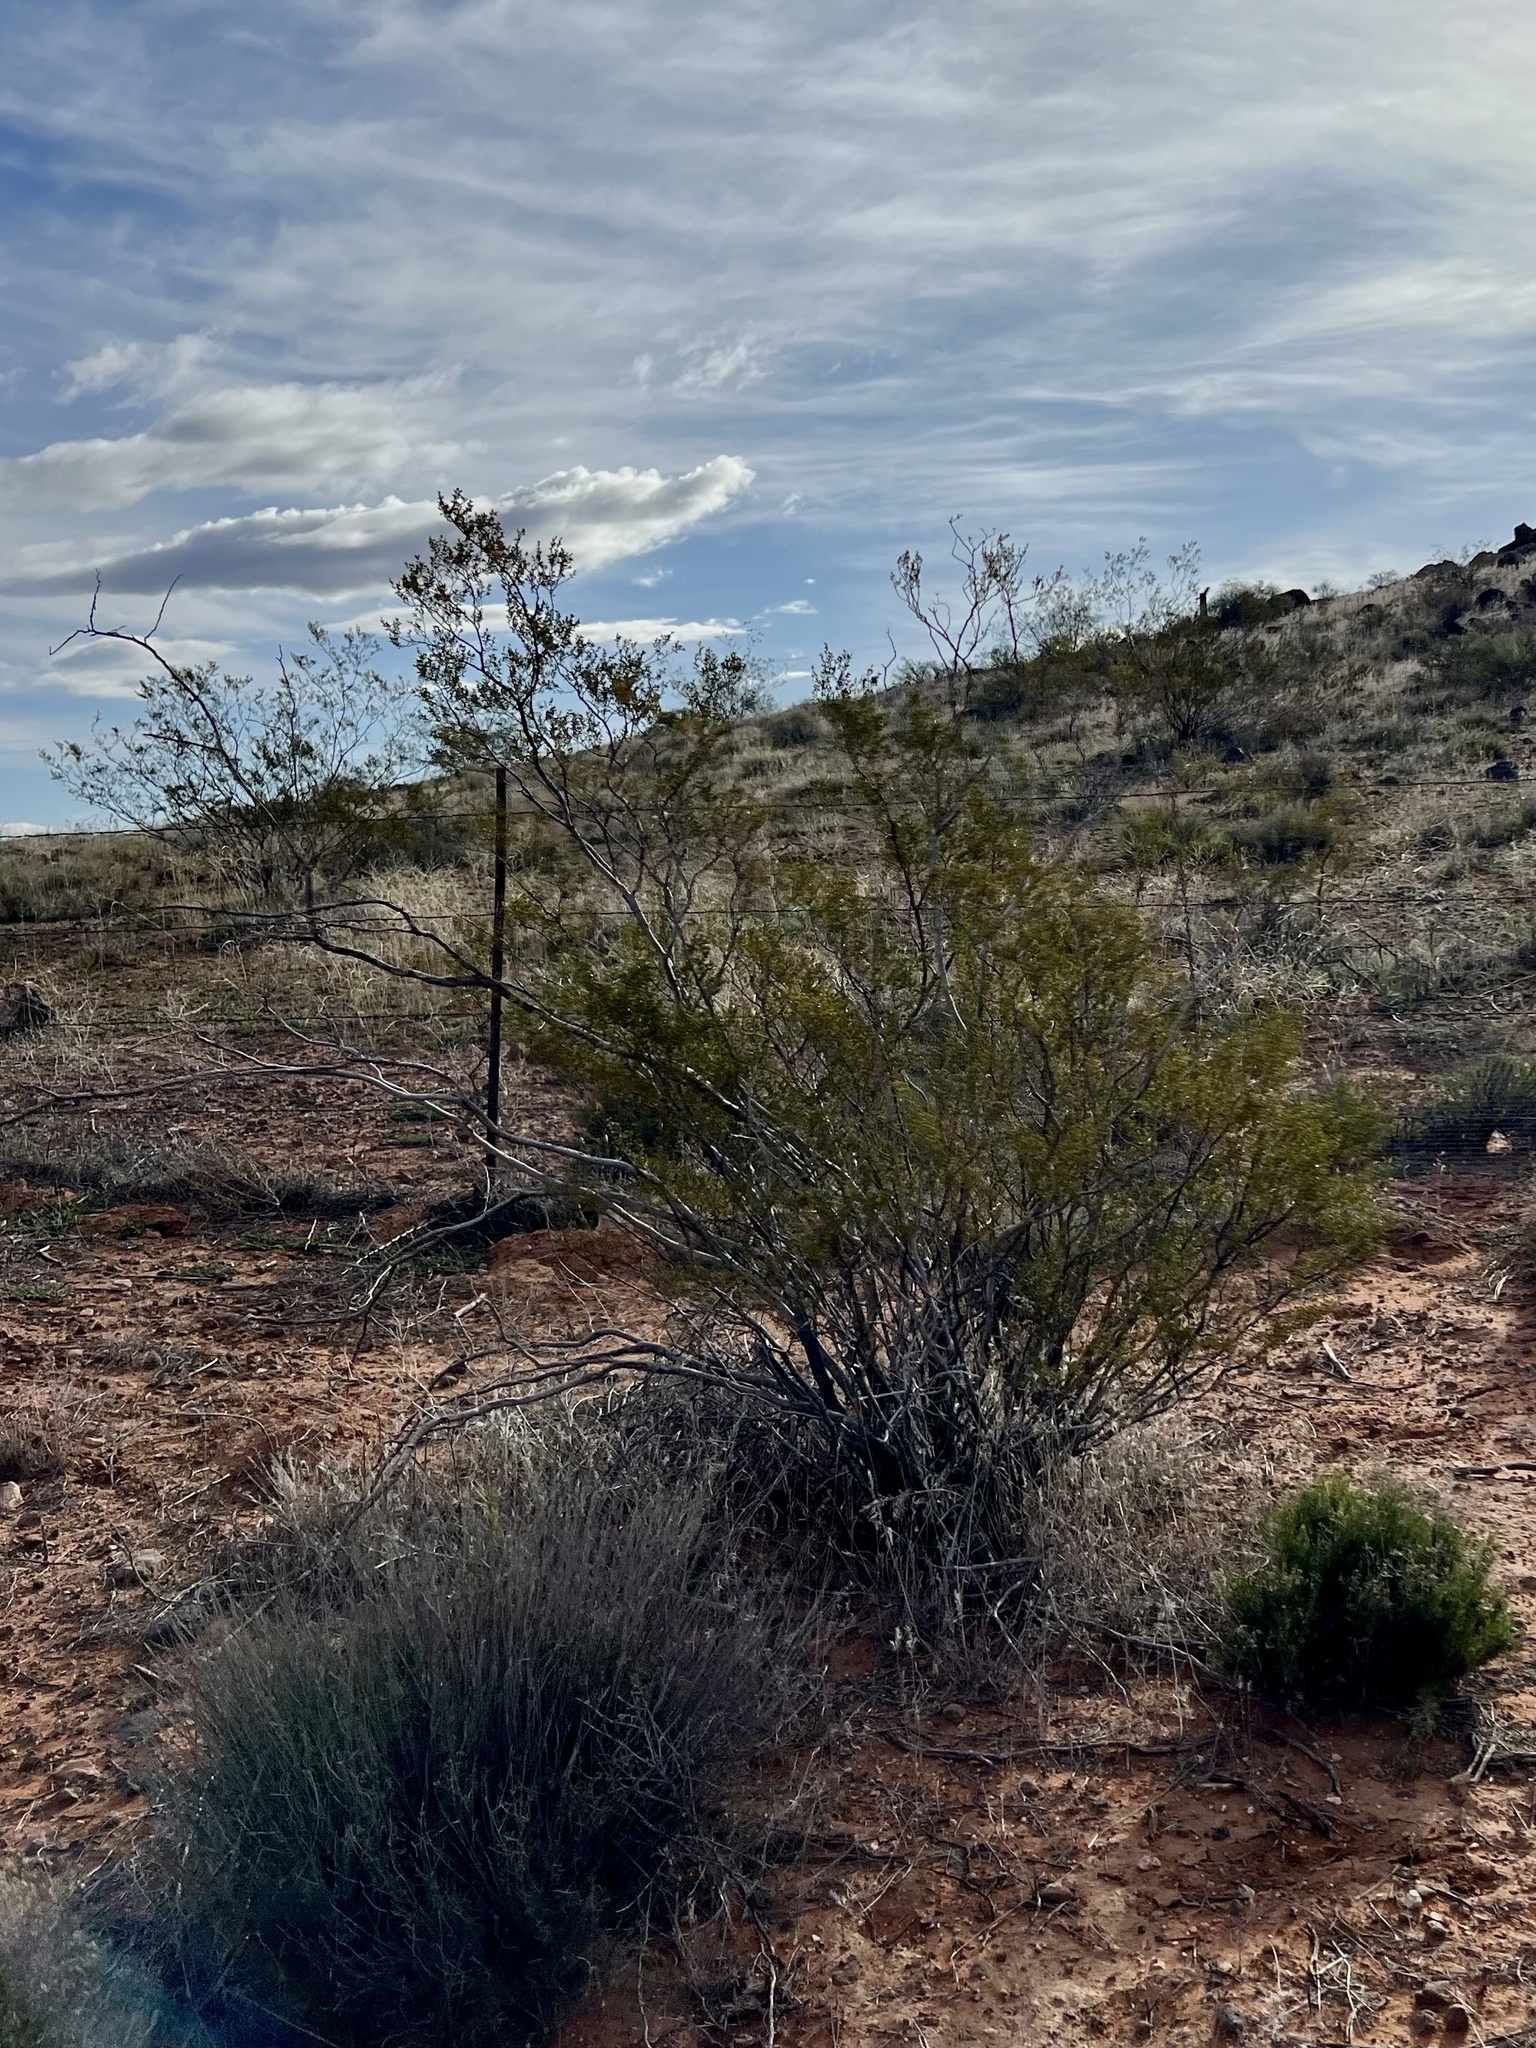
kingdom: Plantae
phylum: Tracheophyta
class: Magnoliopsida
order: Zygophyllales
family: Zygophyllaceae
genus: Larrea
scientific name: Larrea tridentata
